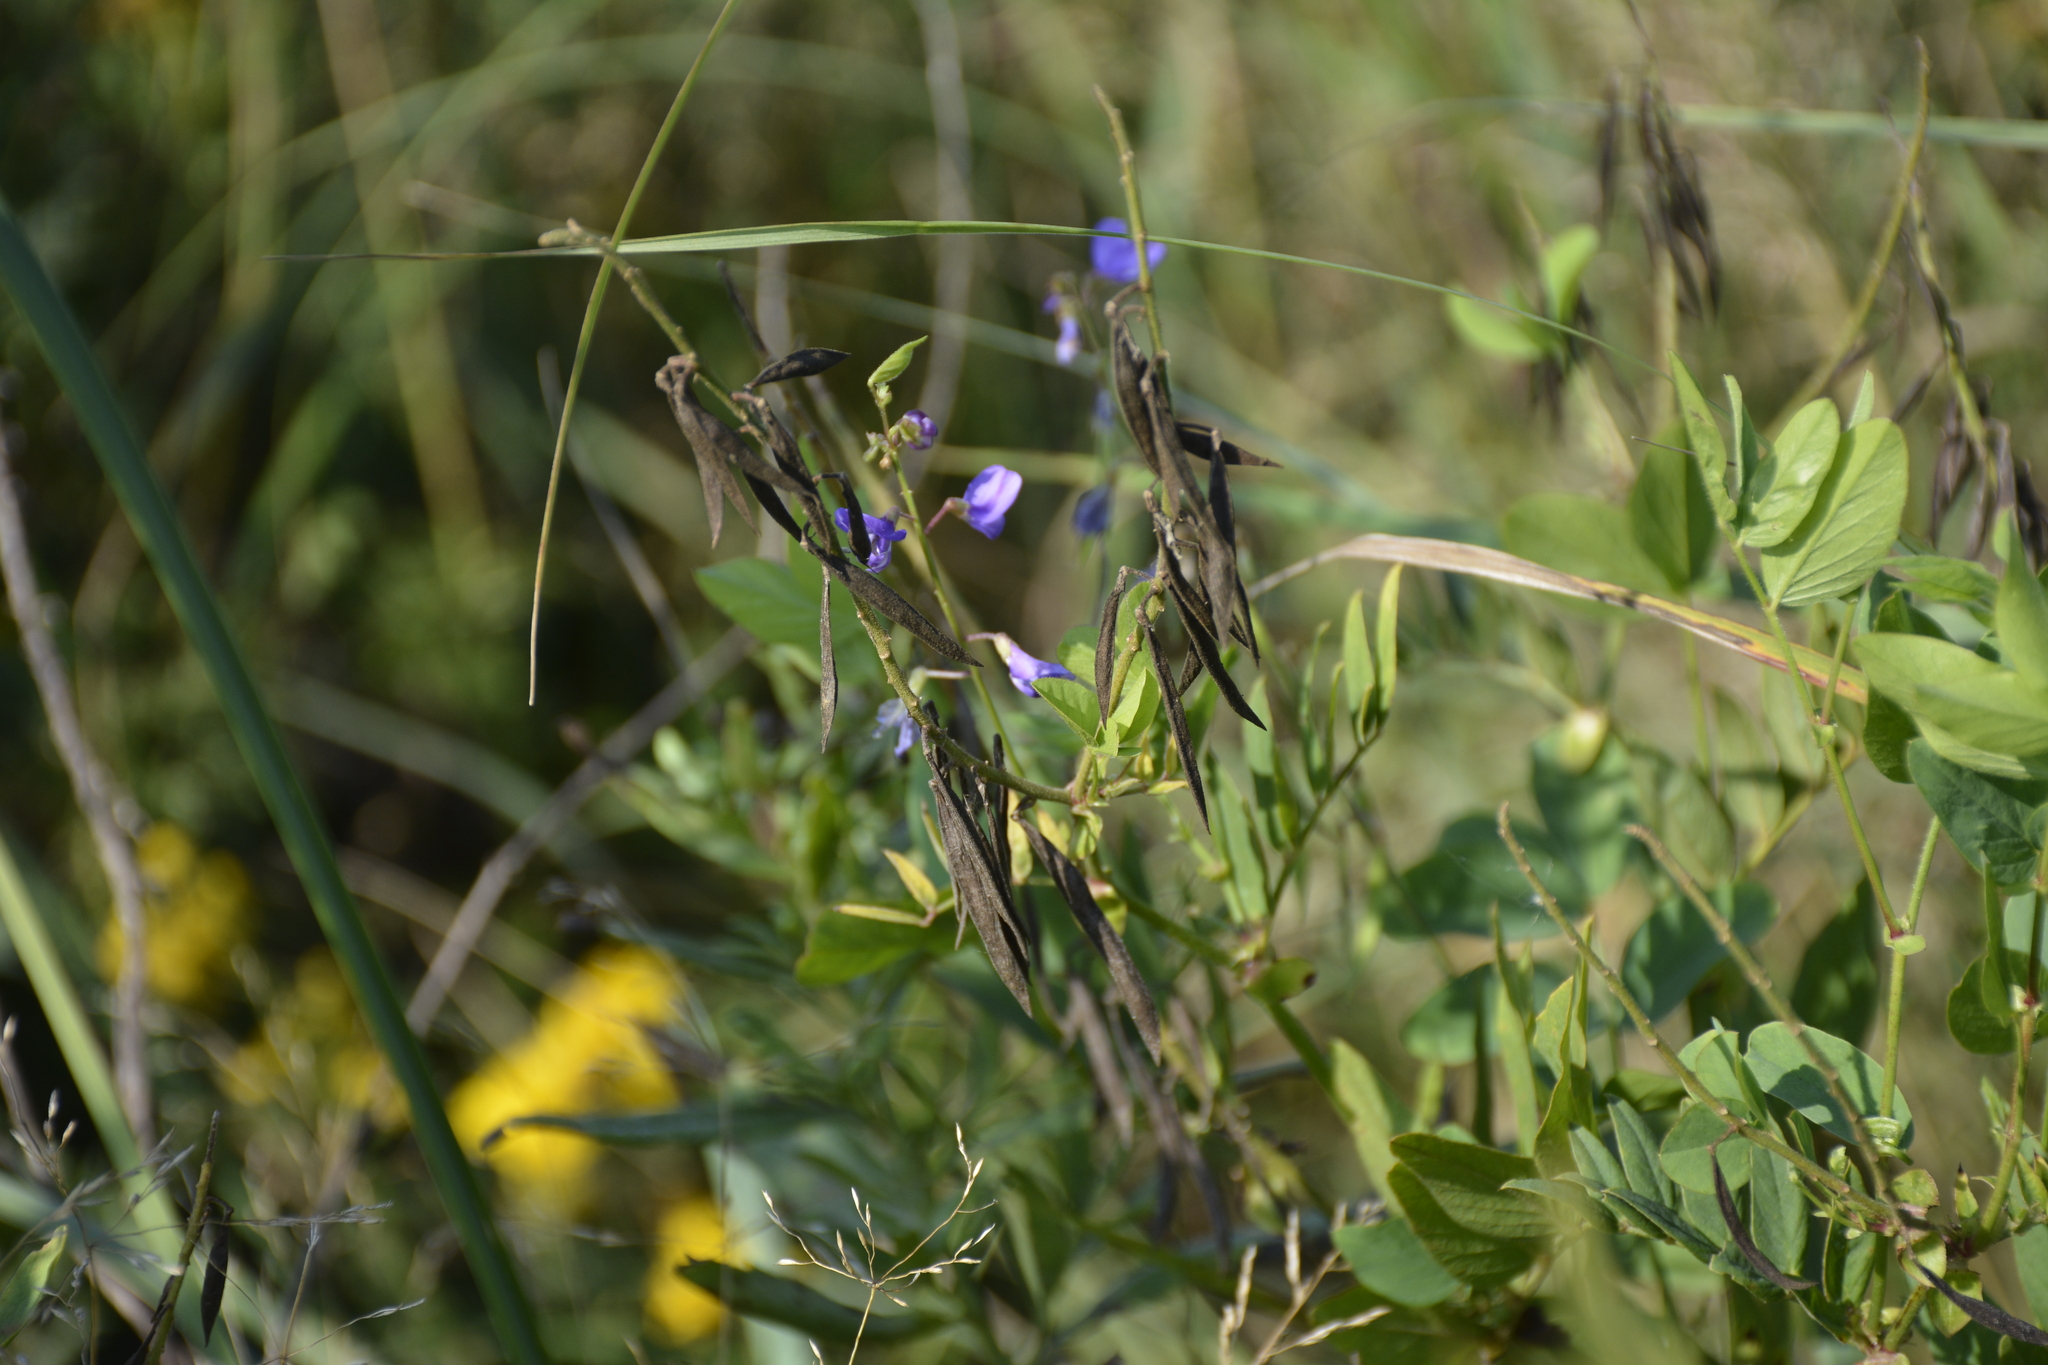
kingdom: Plantae
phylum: Tracheophyta
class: Magnoliopsida
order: Fabales
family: Fabaceae
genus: Galega
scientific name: Galega orientalis
